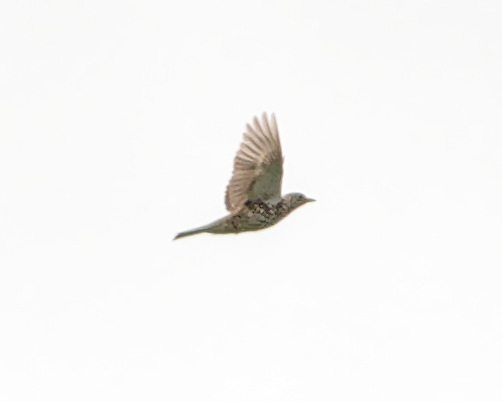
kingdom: Animalia
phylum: Chordata
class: Aves
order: Passeriformes
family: Turdidae
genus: Turdus
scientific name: Turdus viscivorus
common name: Mistle thrush
